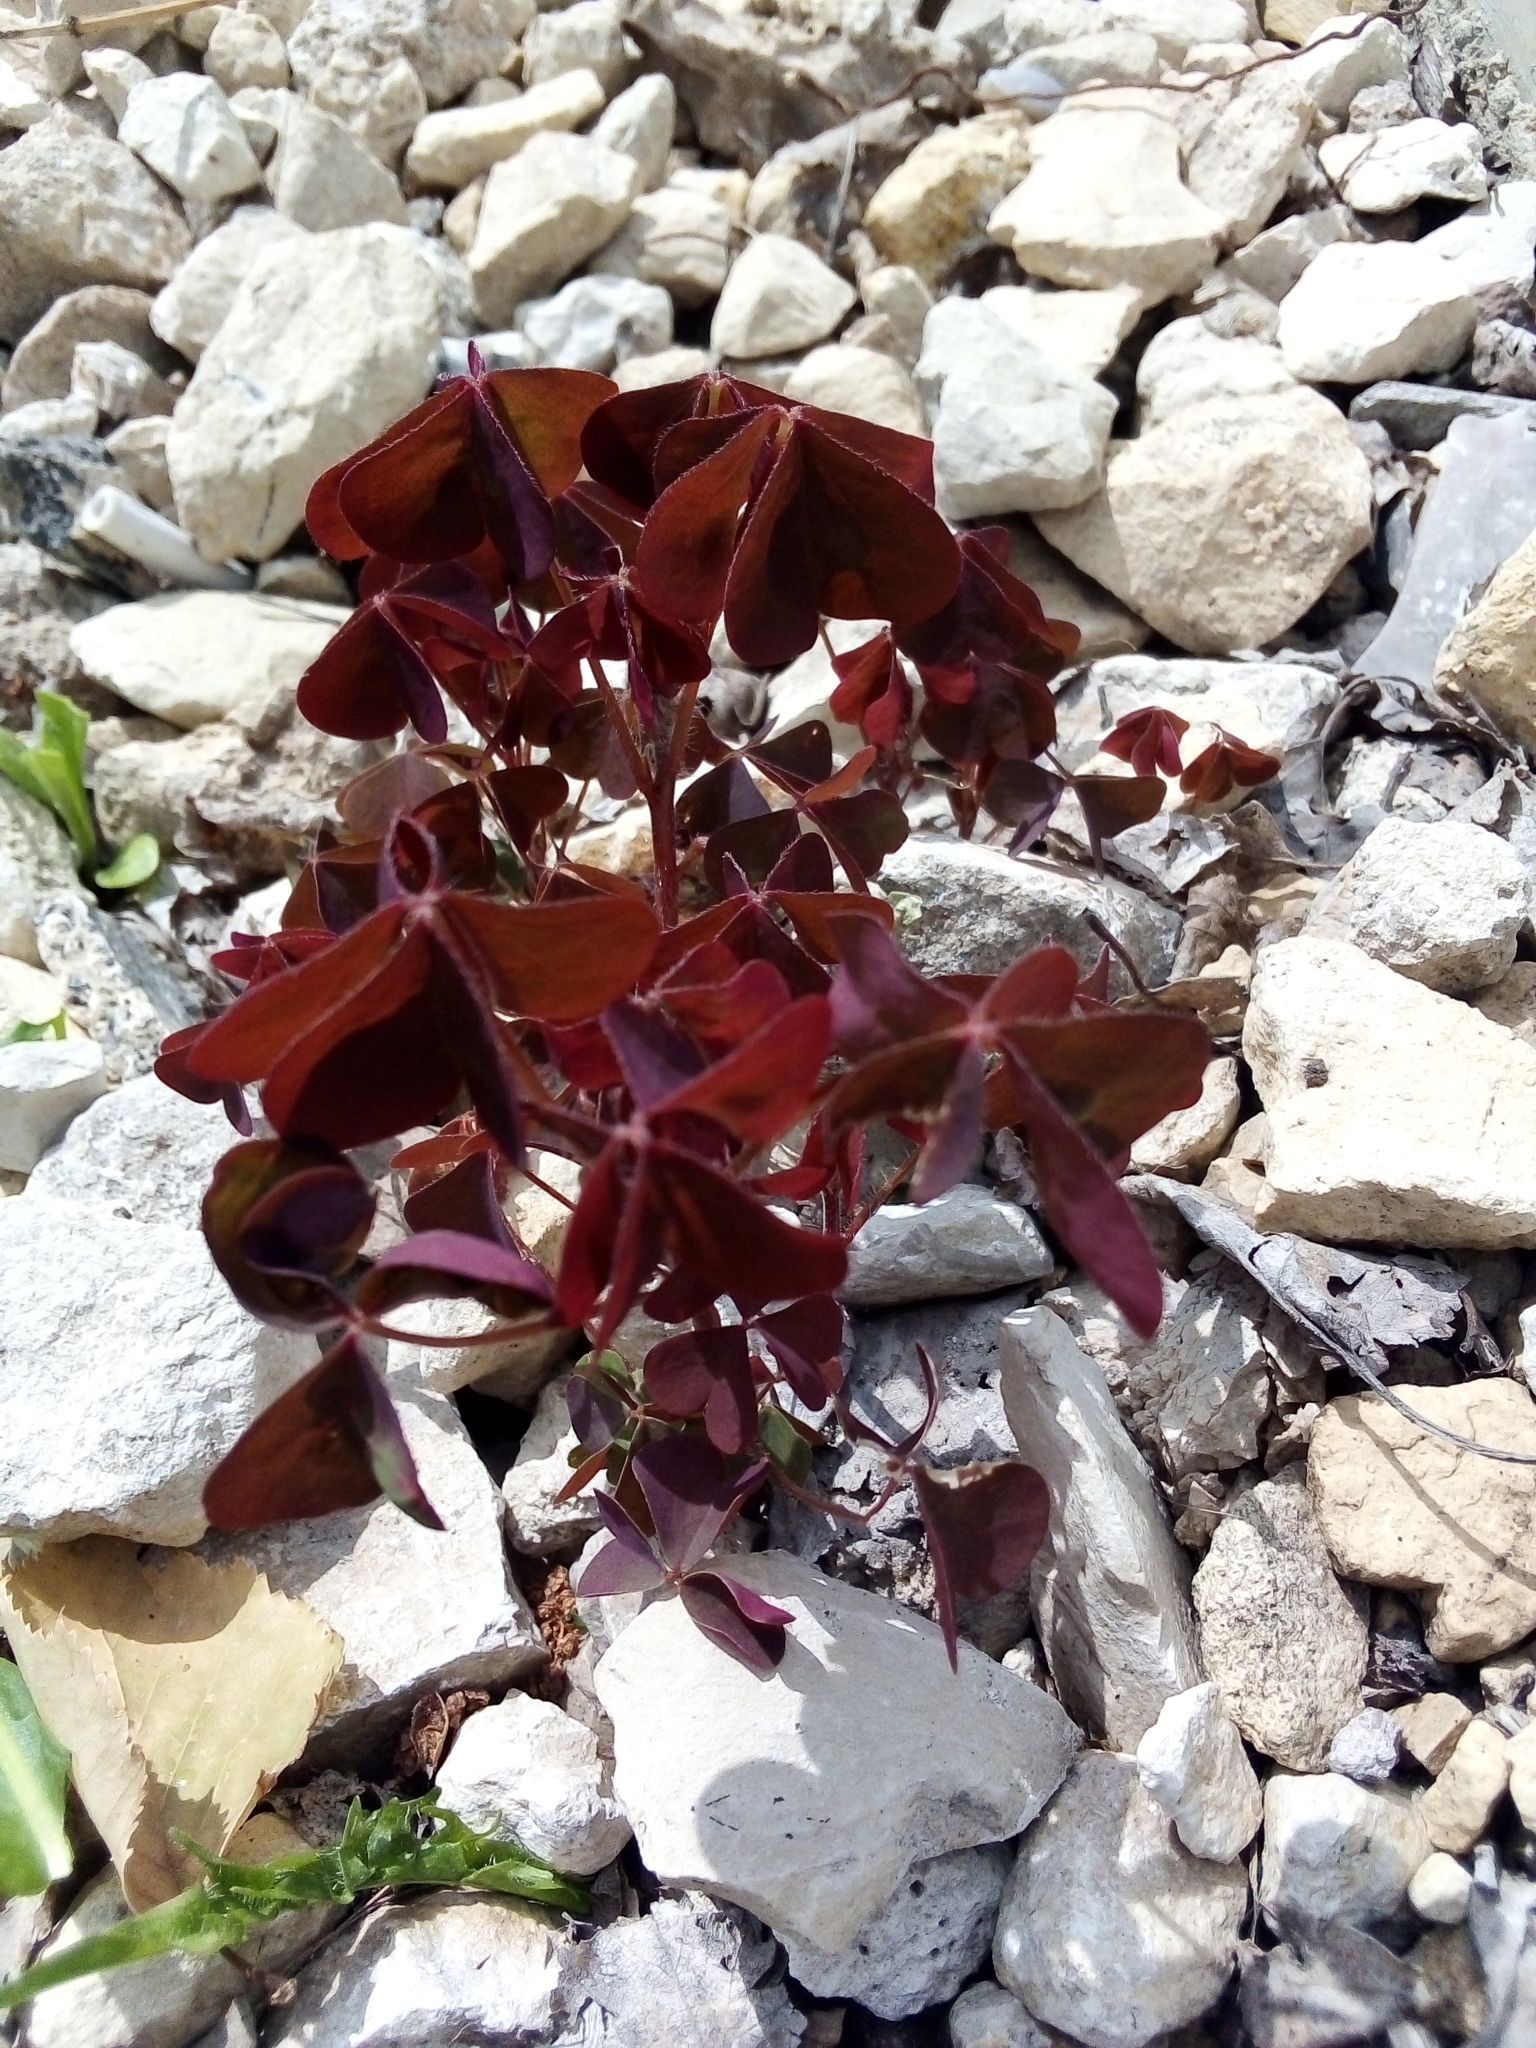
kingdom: Plantae
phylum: Tracheophyta
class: Magnoliopsida
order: Oxalidales
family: Oxalidaceae
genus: Oxalis
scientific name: Oxalis stricta
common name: Upright yellow-sorrel
